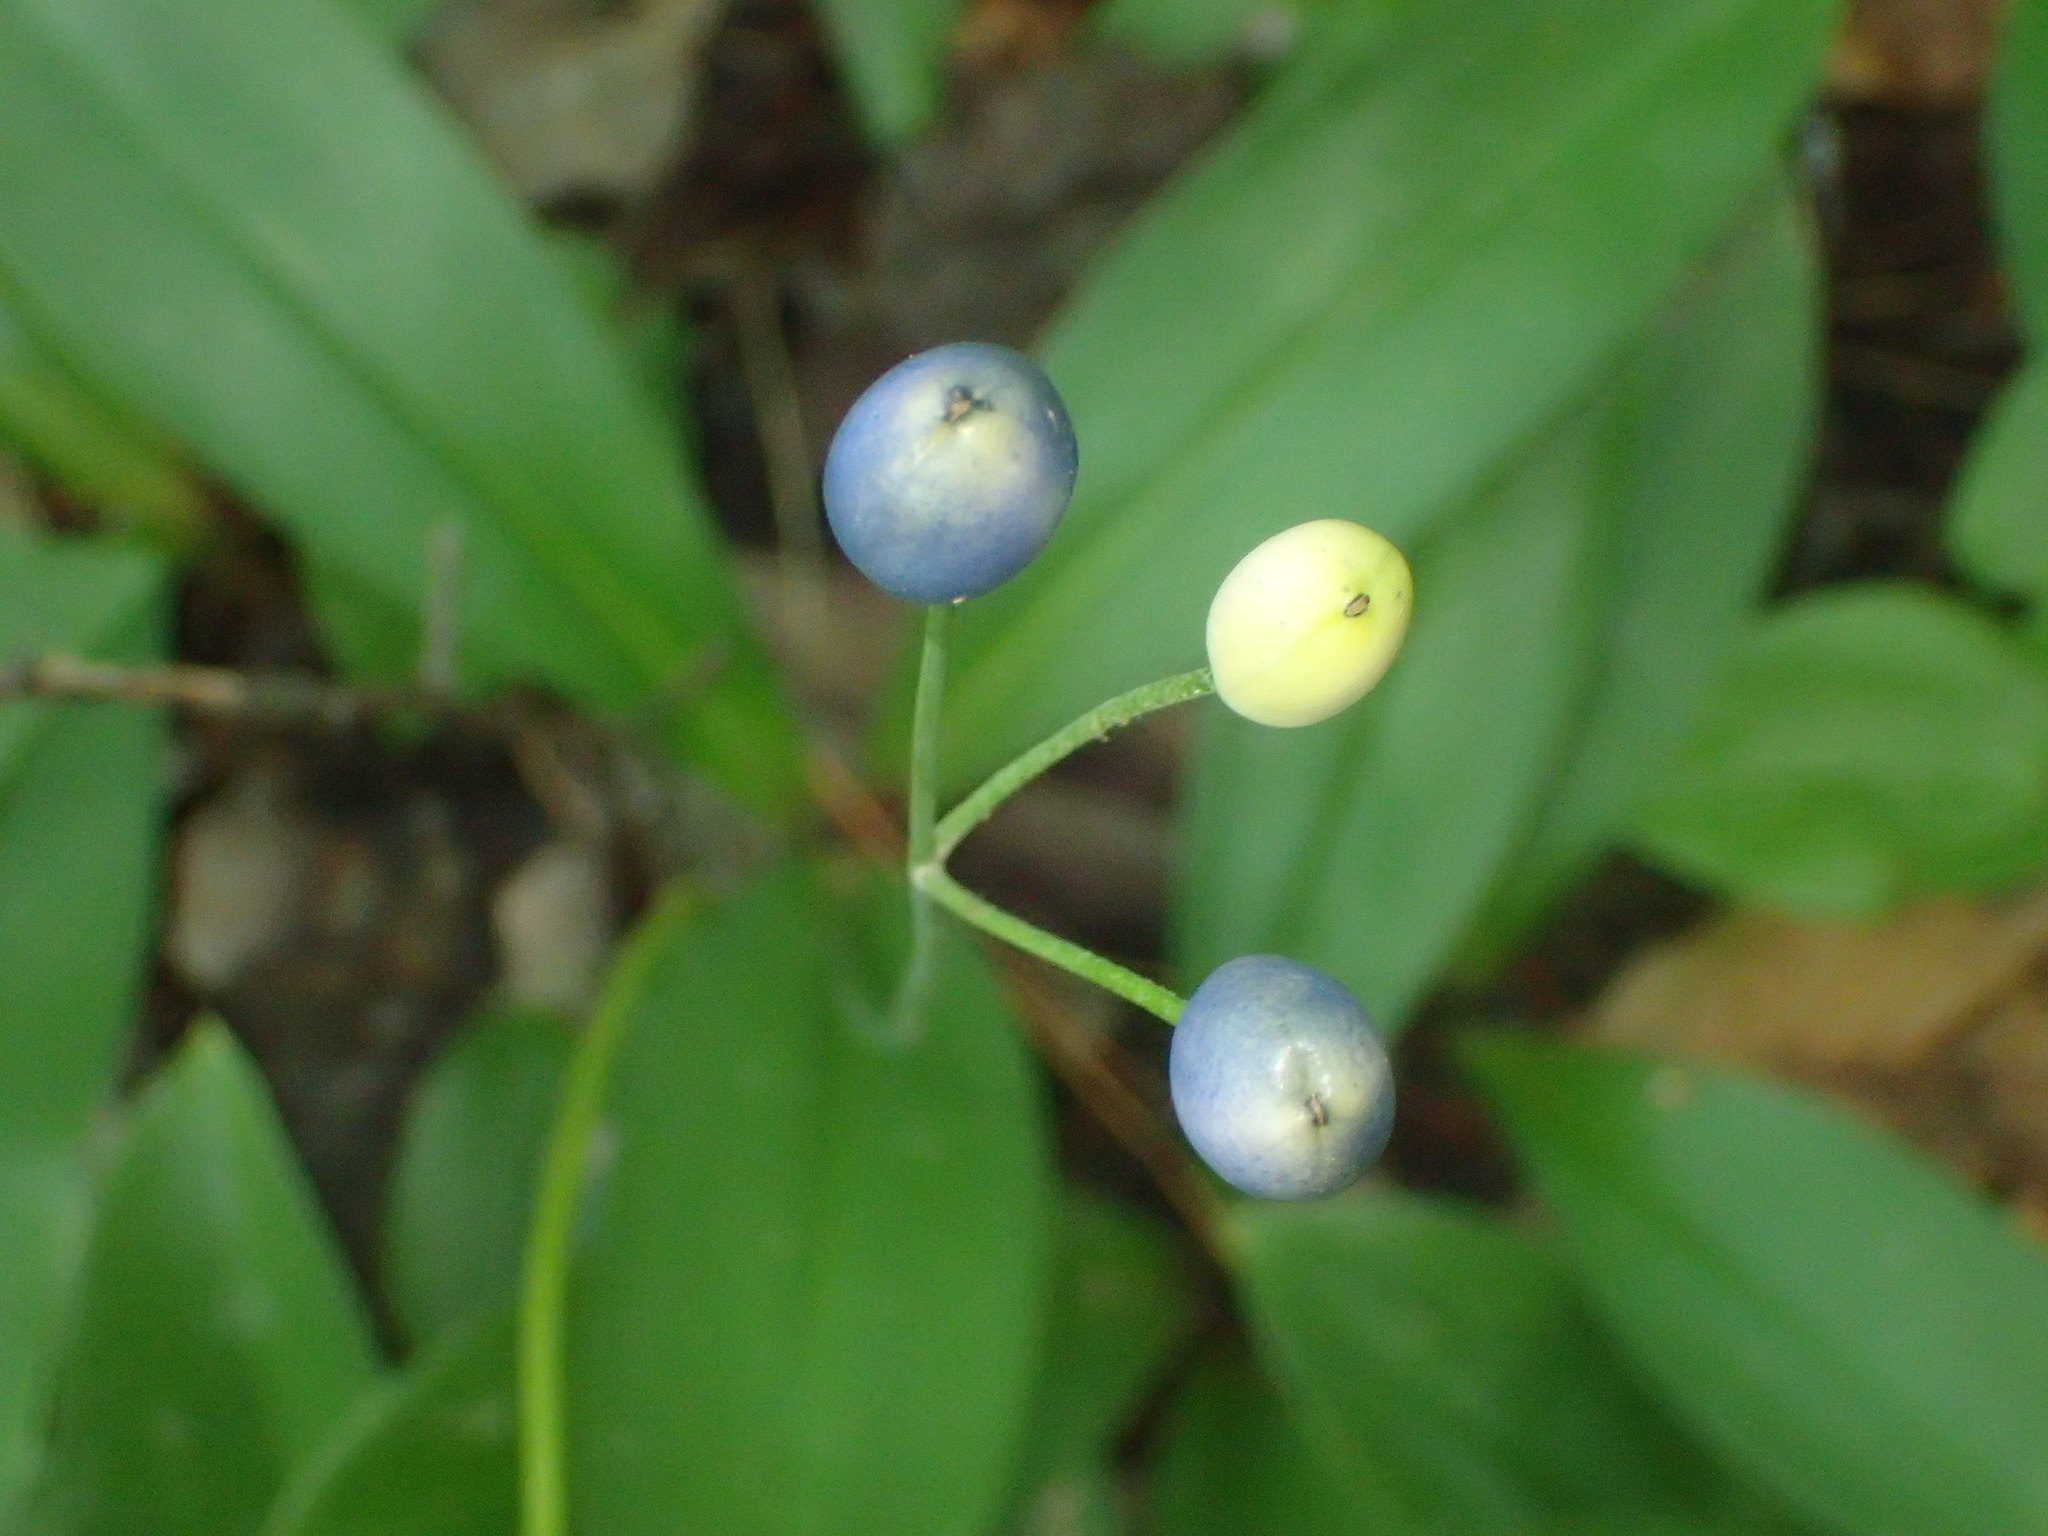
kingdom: Plantae
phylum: Tracheophyta
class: Liliopsida
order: Liliales
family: Liliaceae
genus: Clintonia
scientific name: Clintonia borealis
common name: Yellow clintonia
